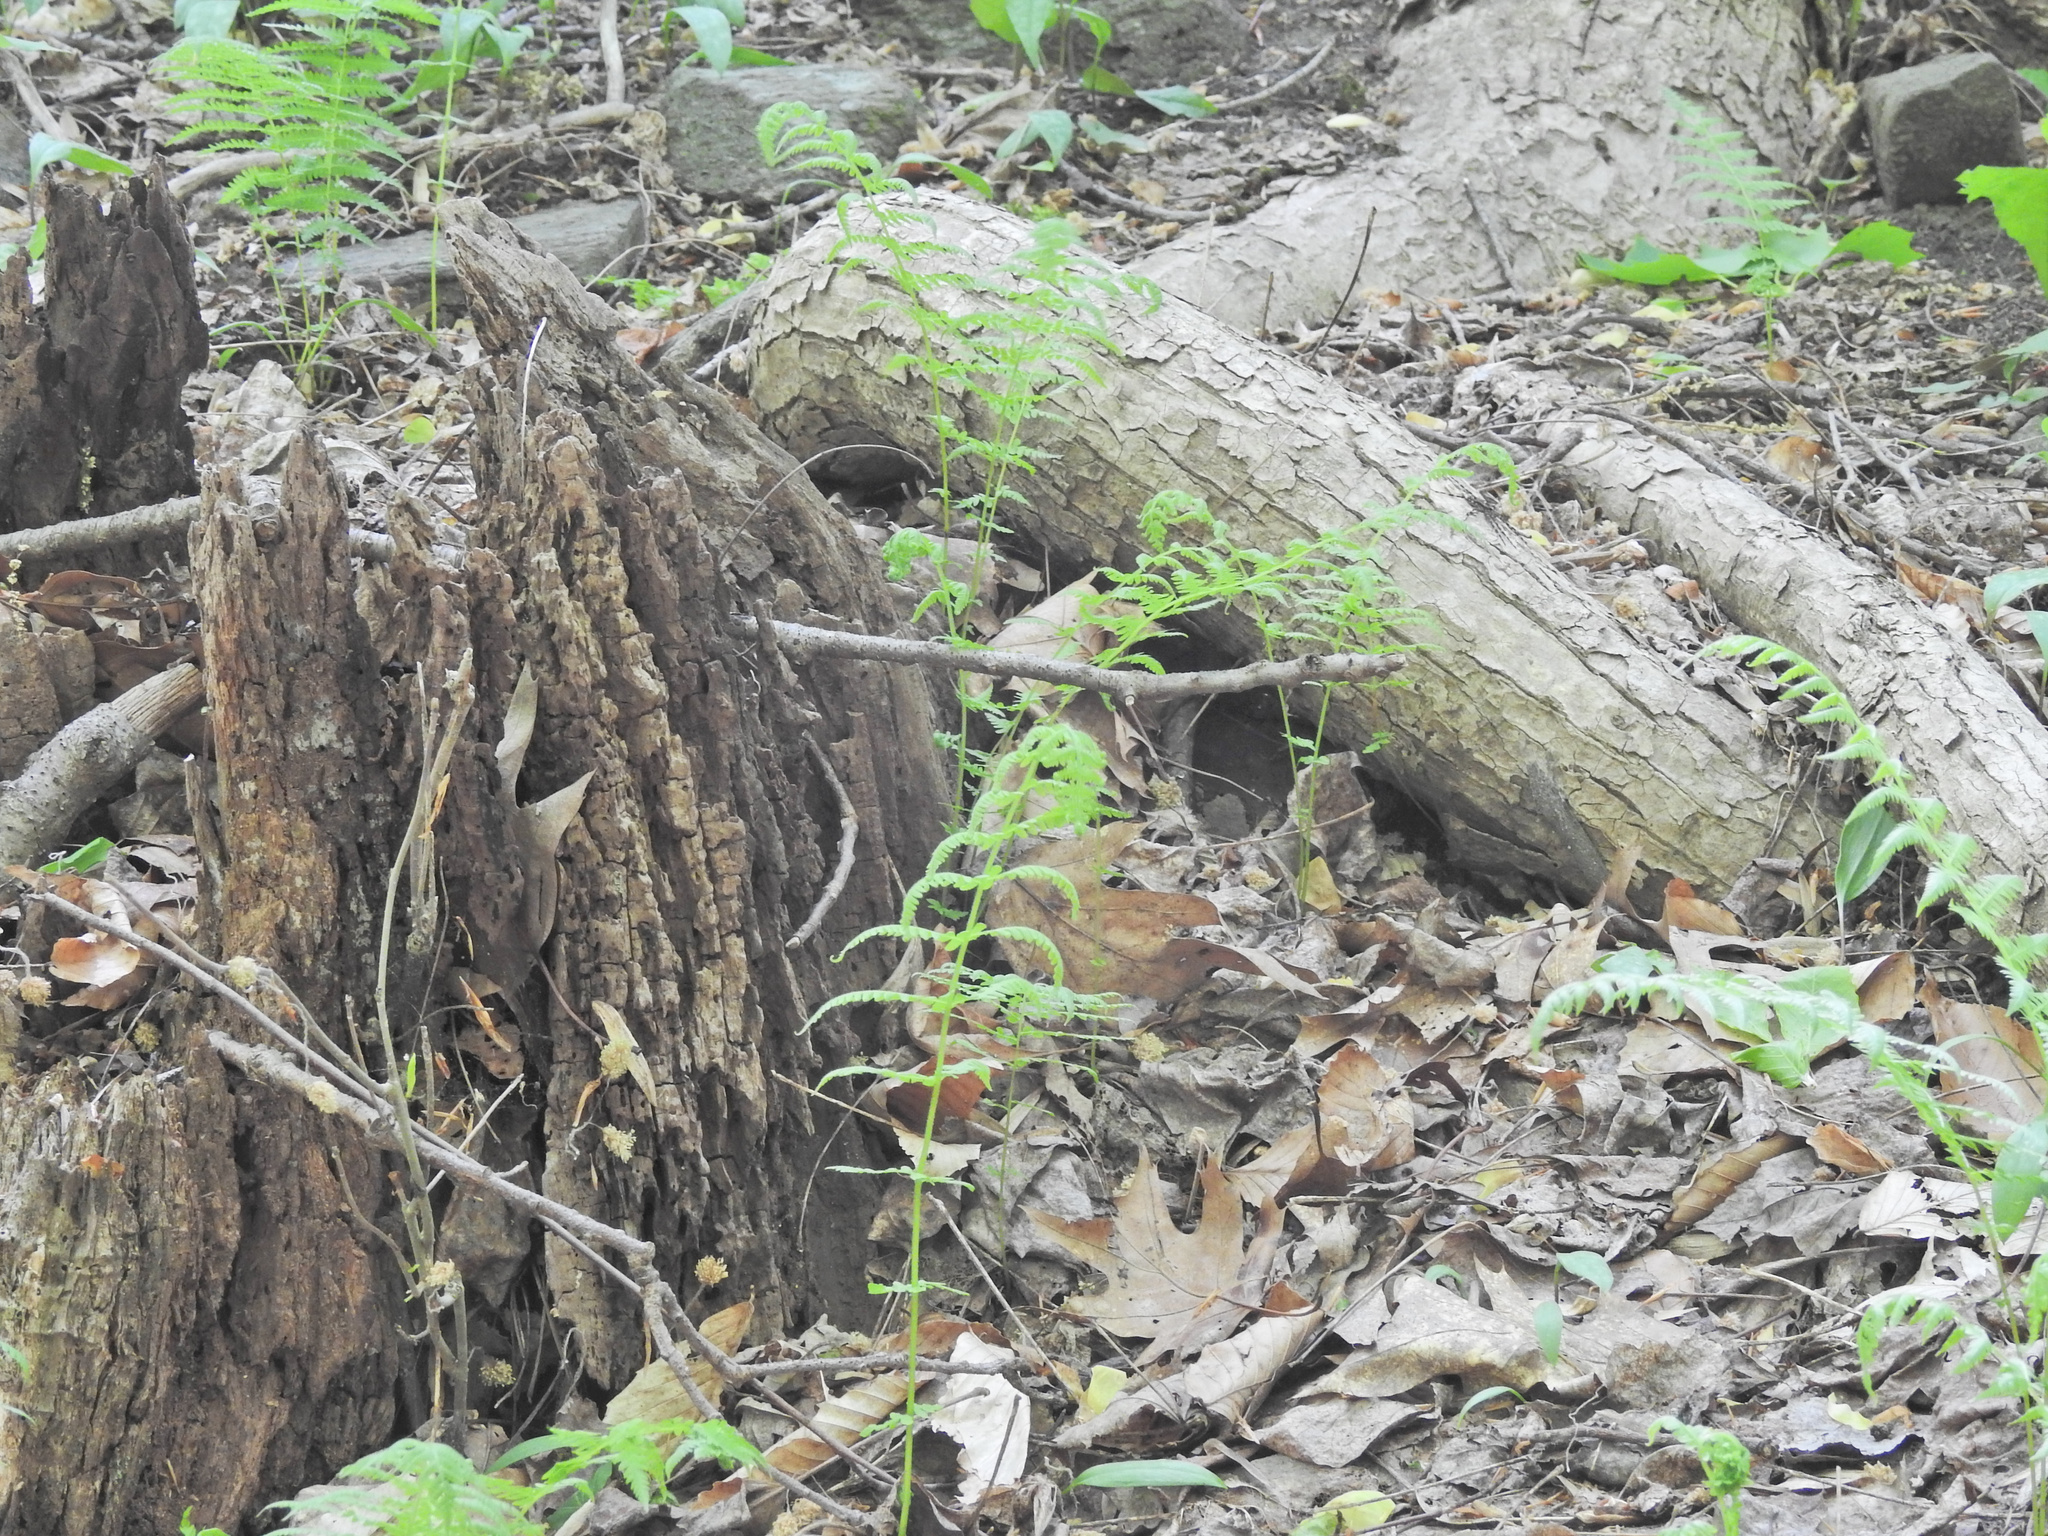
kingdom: Plantae
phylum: Tracheophyta
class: Polypodiopsida
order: Polypodiales
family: Thelypteridaceae
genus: Amauropelta
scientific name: Amauropelta noveboracensis
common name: New york fern
